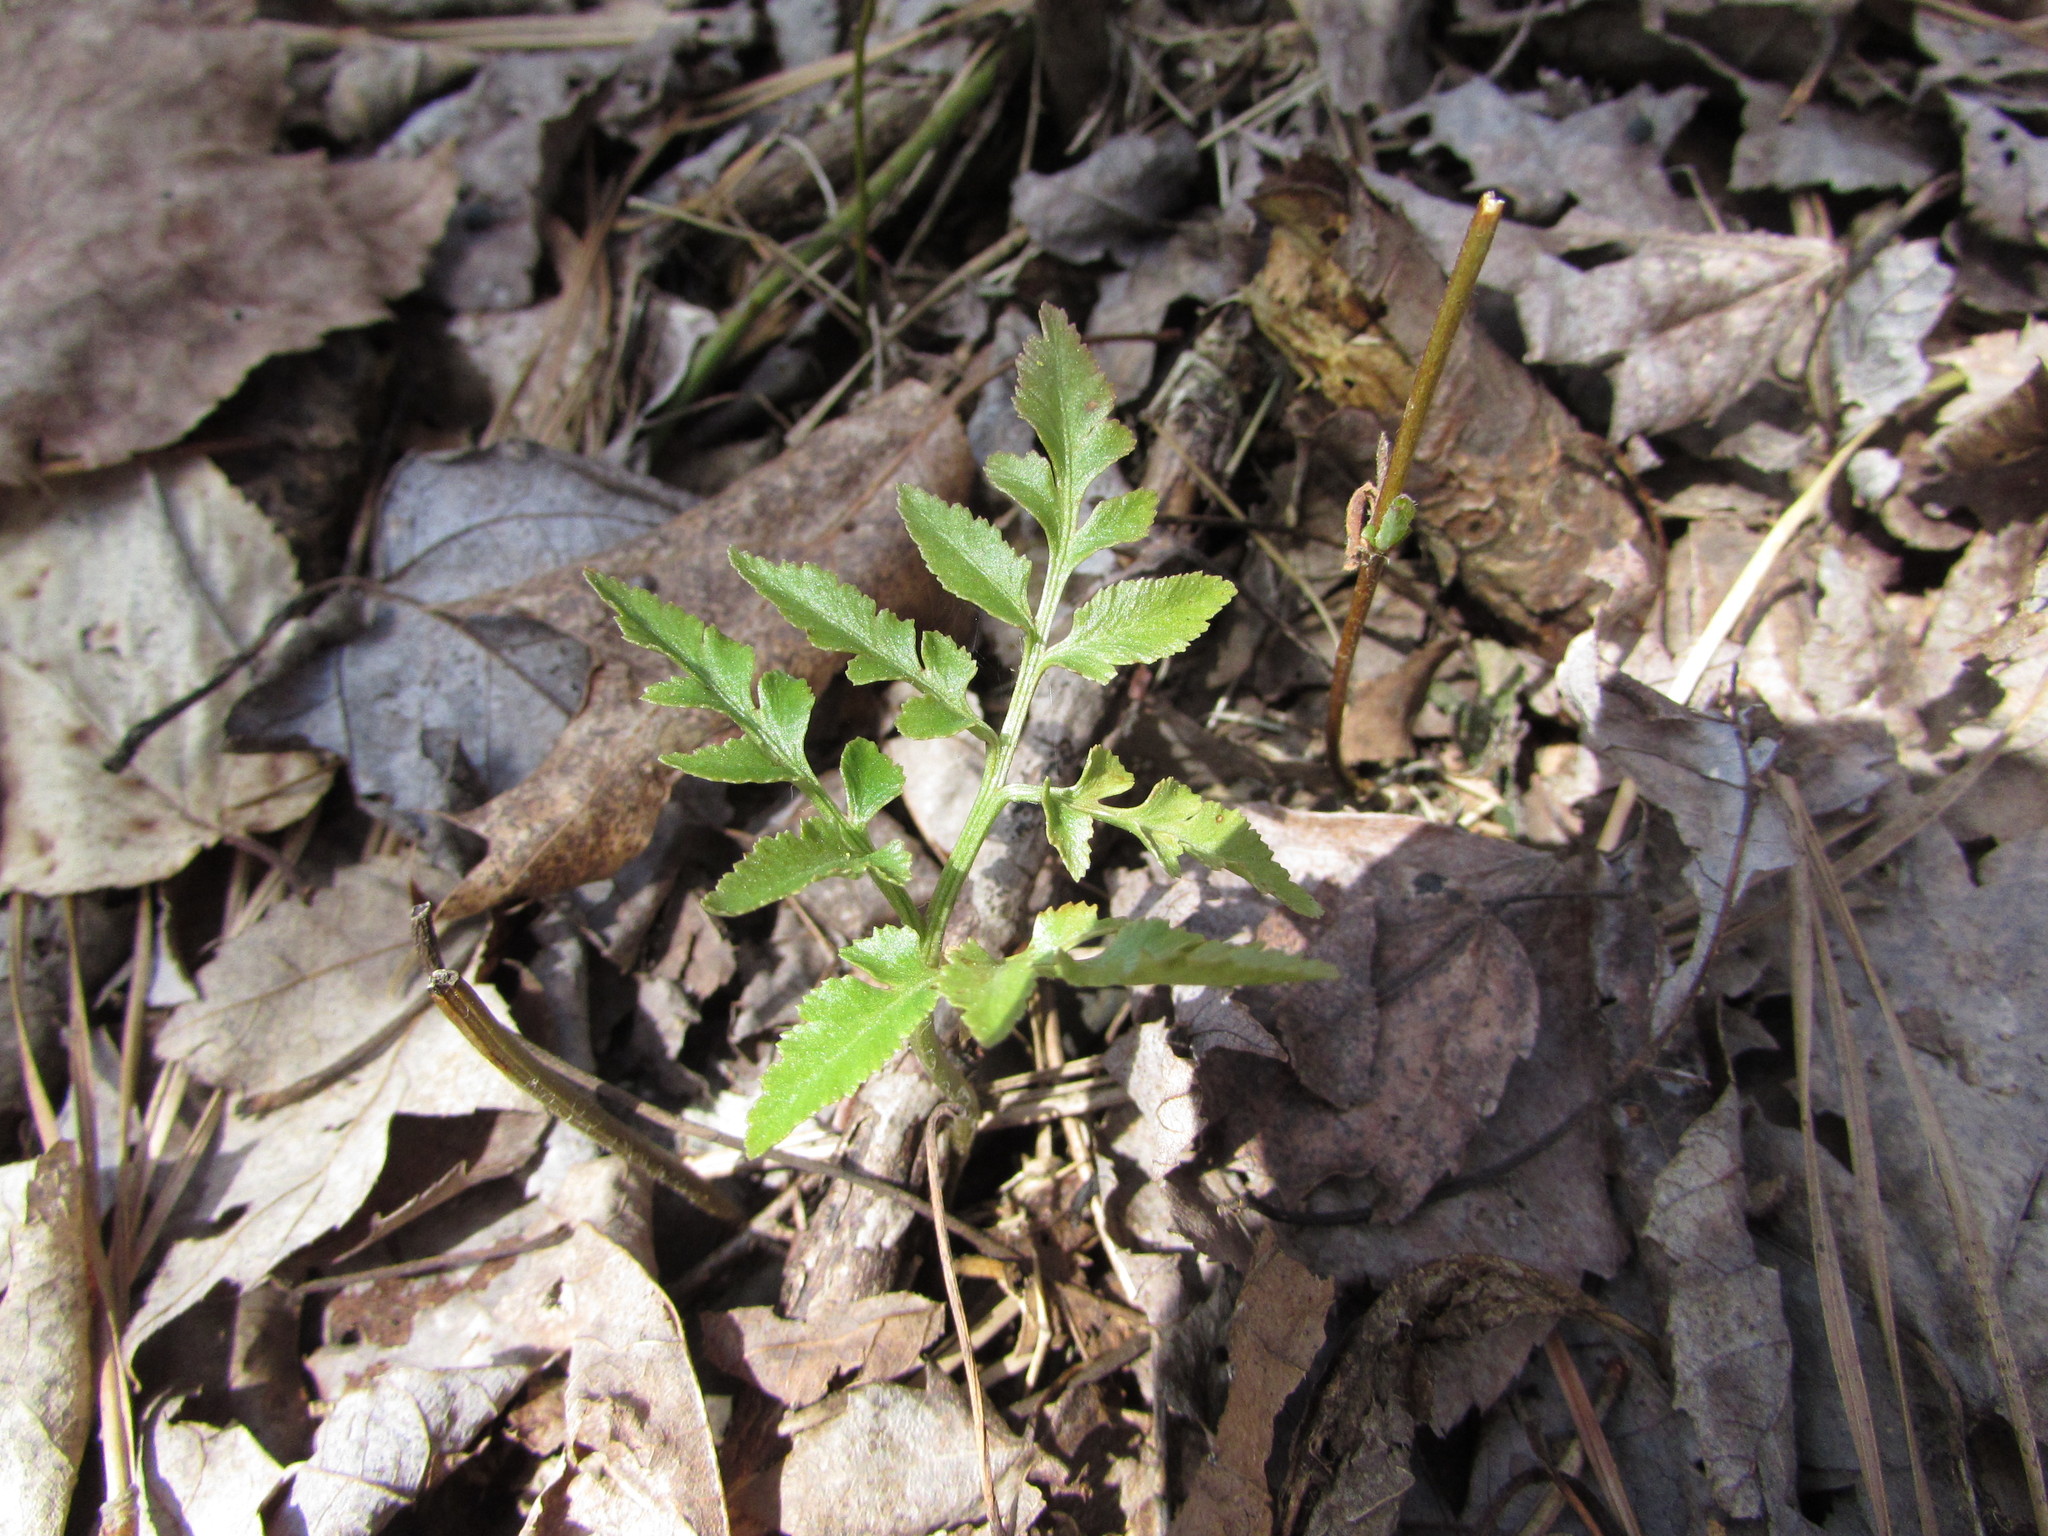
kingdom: Plantae
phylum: Tracheophyta
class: Polypodiopsida
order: Ophioglossales
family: Ophioglossaceae
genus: Sceptridium
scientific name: Sceptridium dissectum
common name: Cut-leaved grapefern
